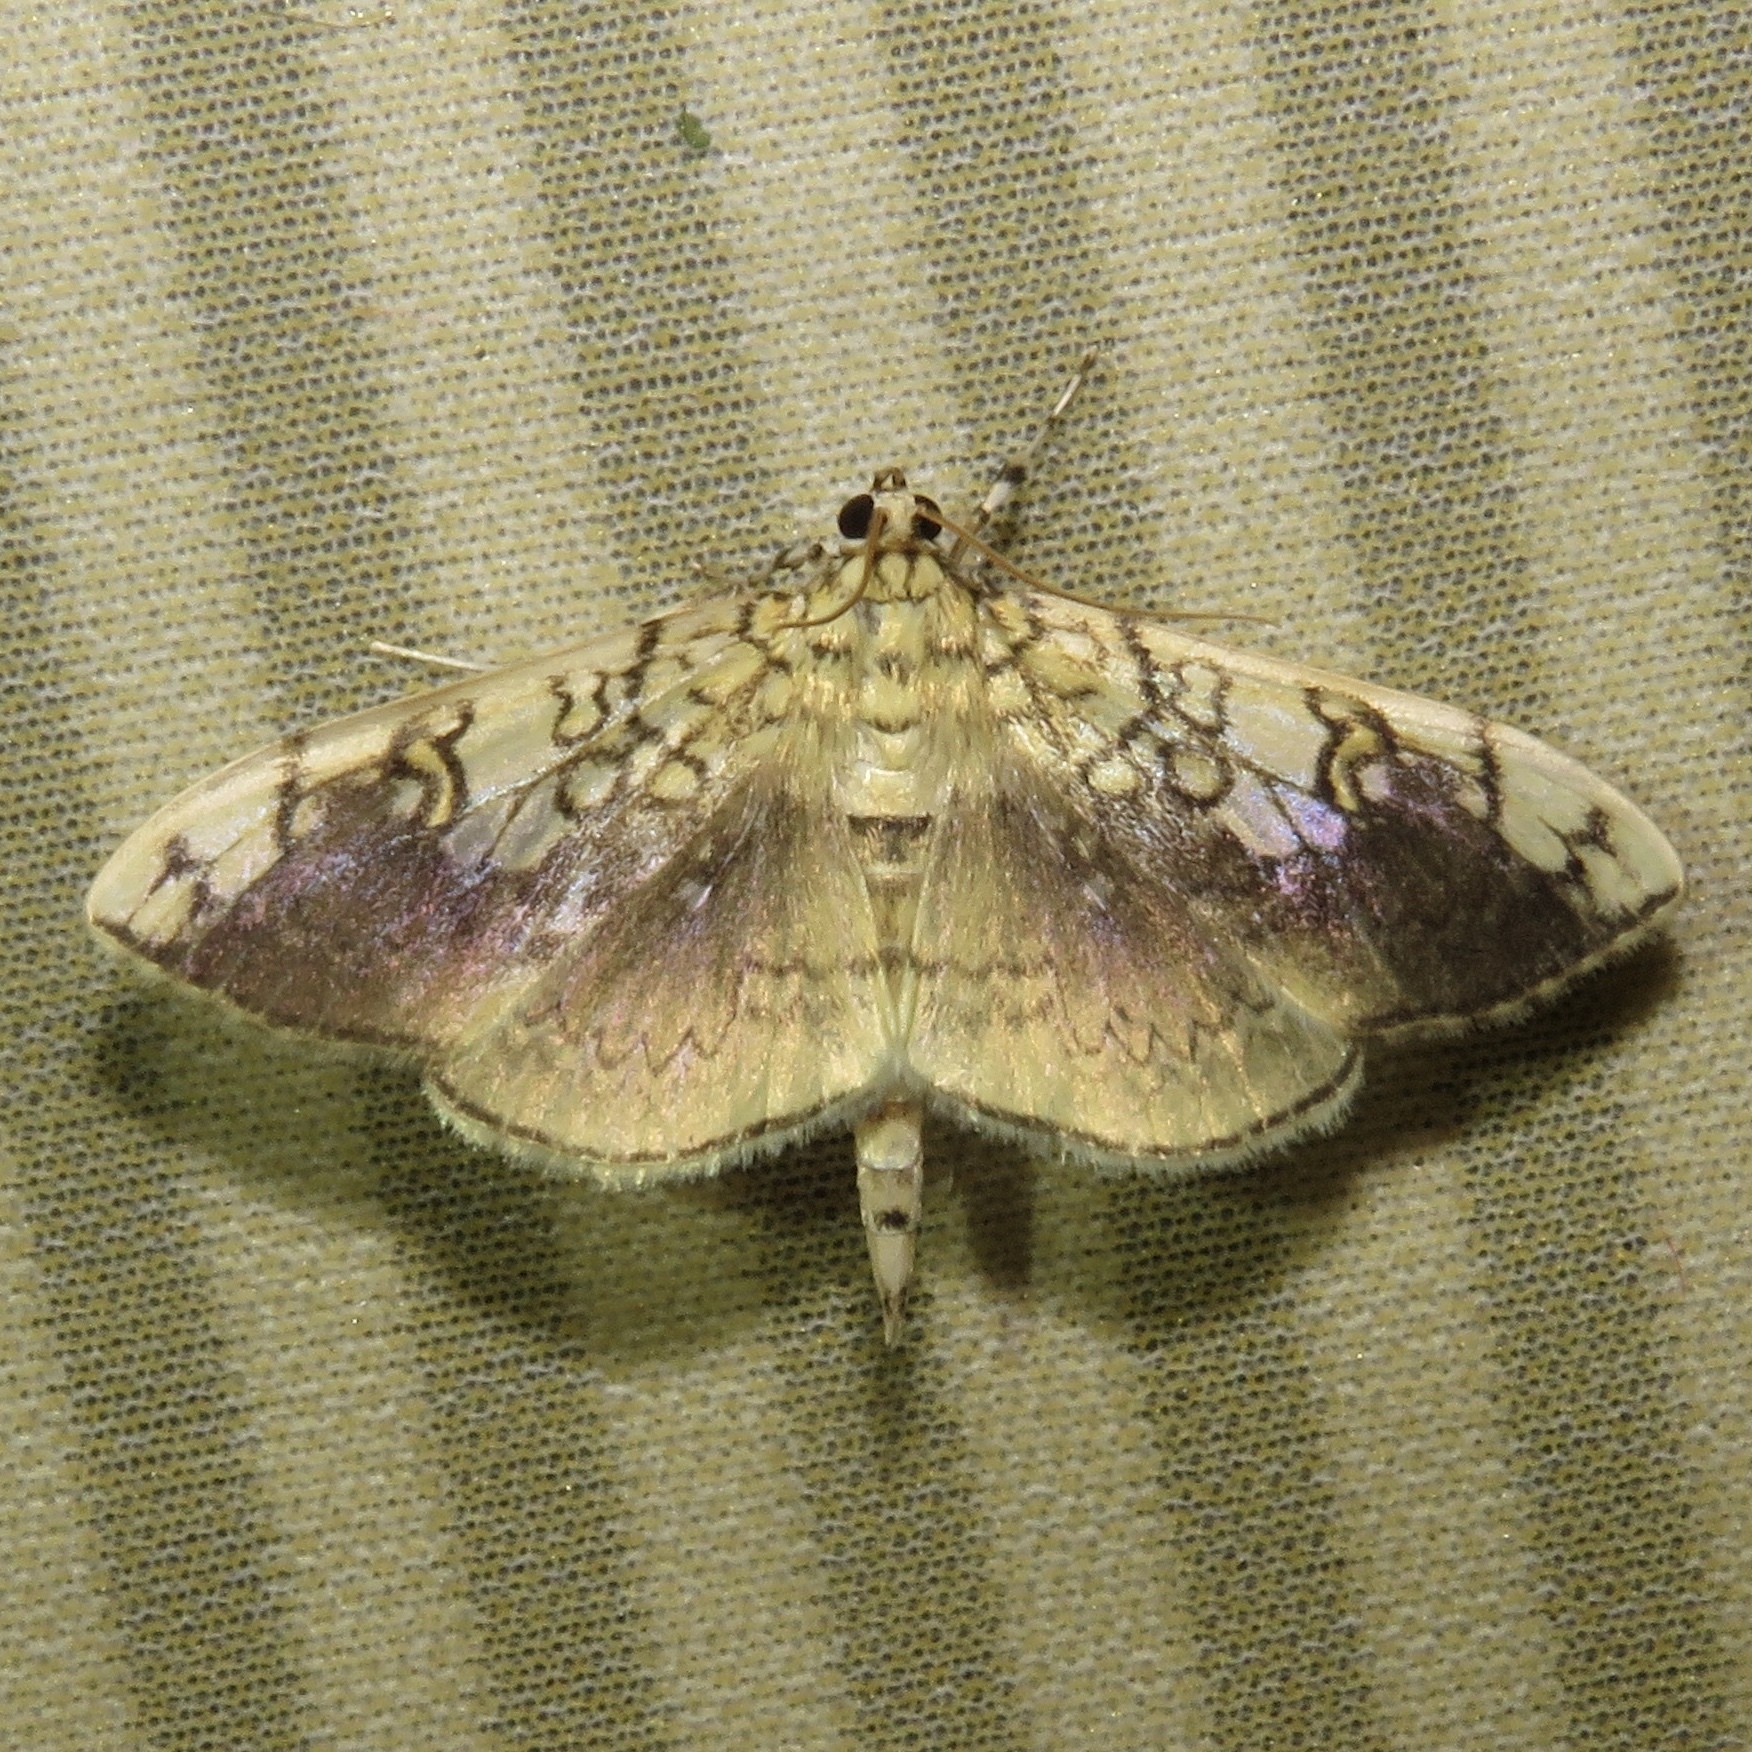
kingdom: Animalia
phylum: Arthropoda
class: Insecta
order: Lepidoptera
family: Crambidae
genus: Pantographa
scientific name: Pantographa limata
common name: Basswood leafroller moth
